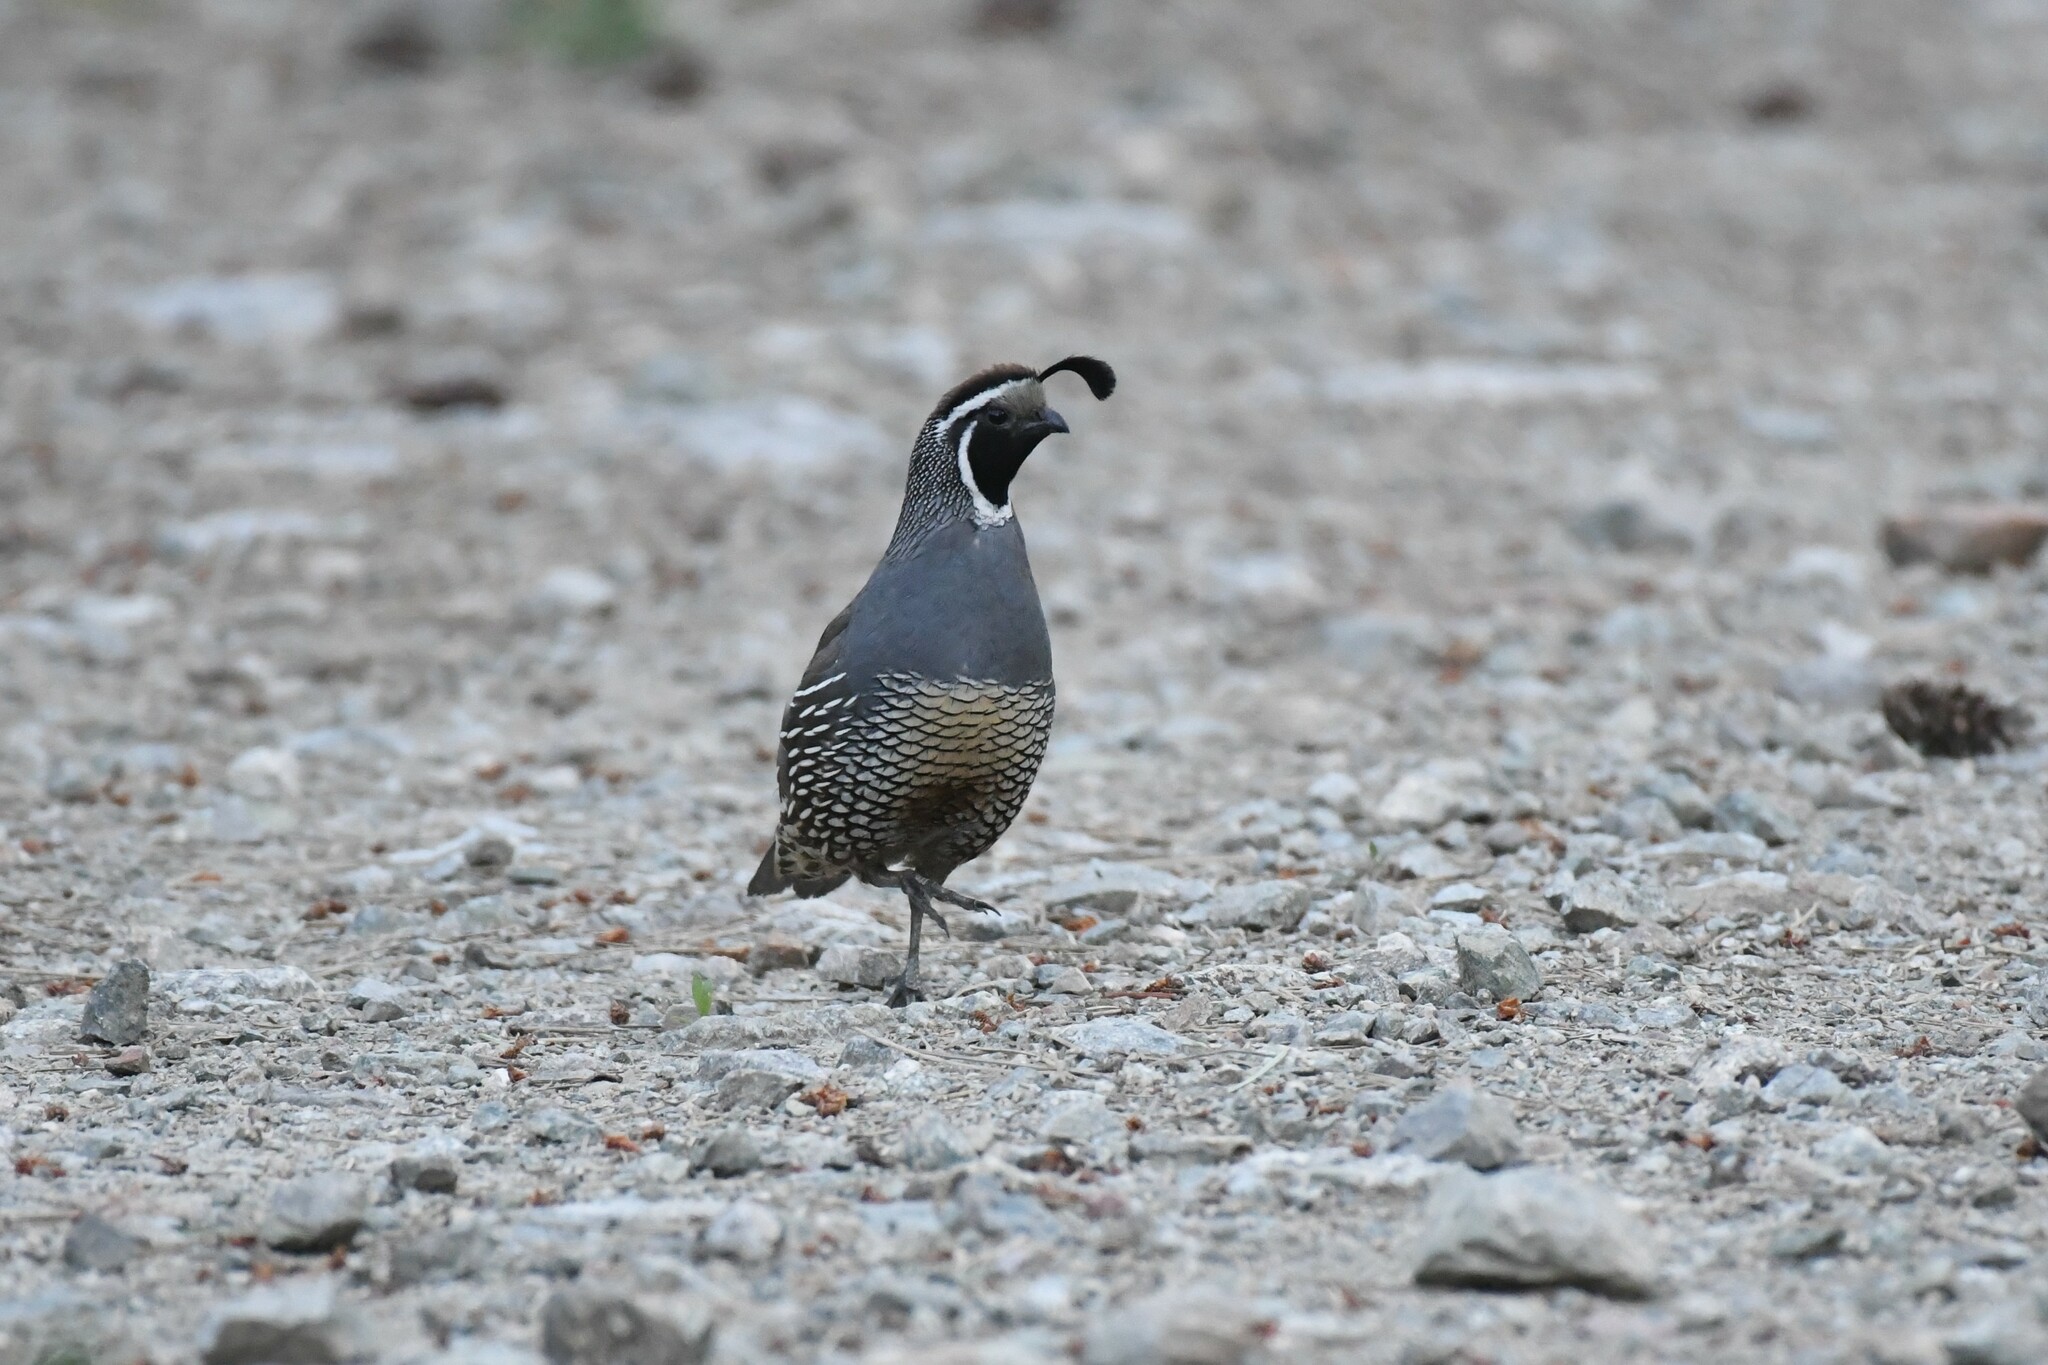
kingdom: Animalia
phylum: Chordata
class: Aves
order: Galliformes
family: Odontophoridae
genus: Callipepla
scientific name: Callipepla californica
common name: California quail
